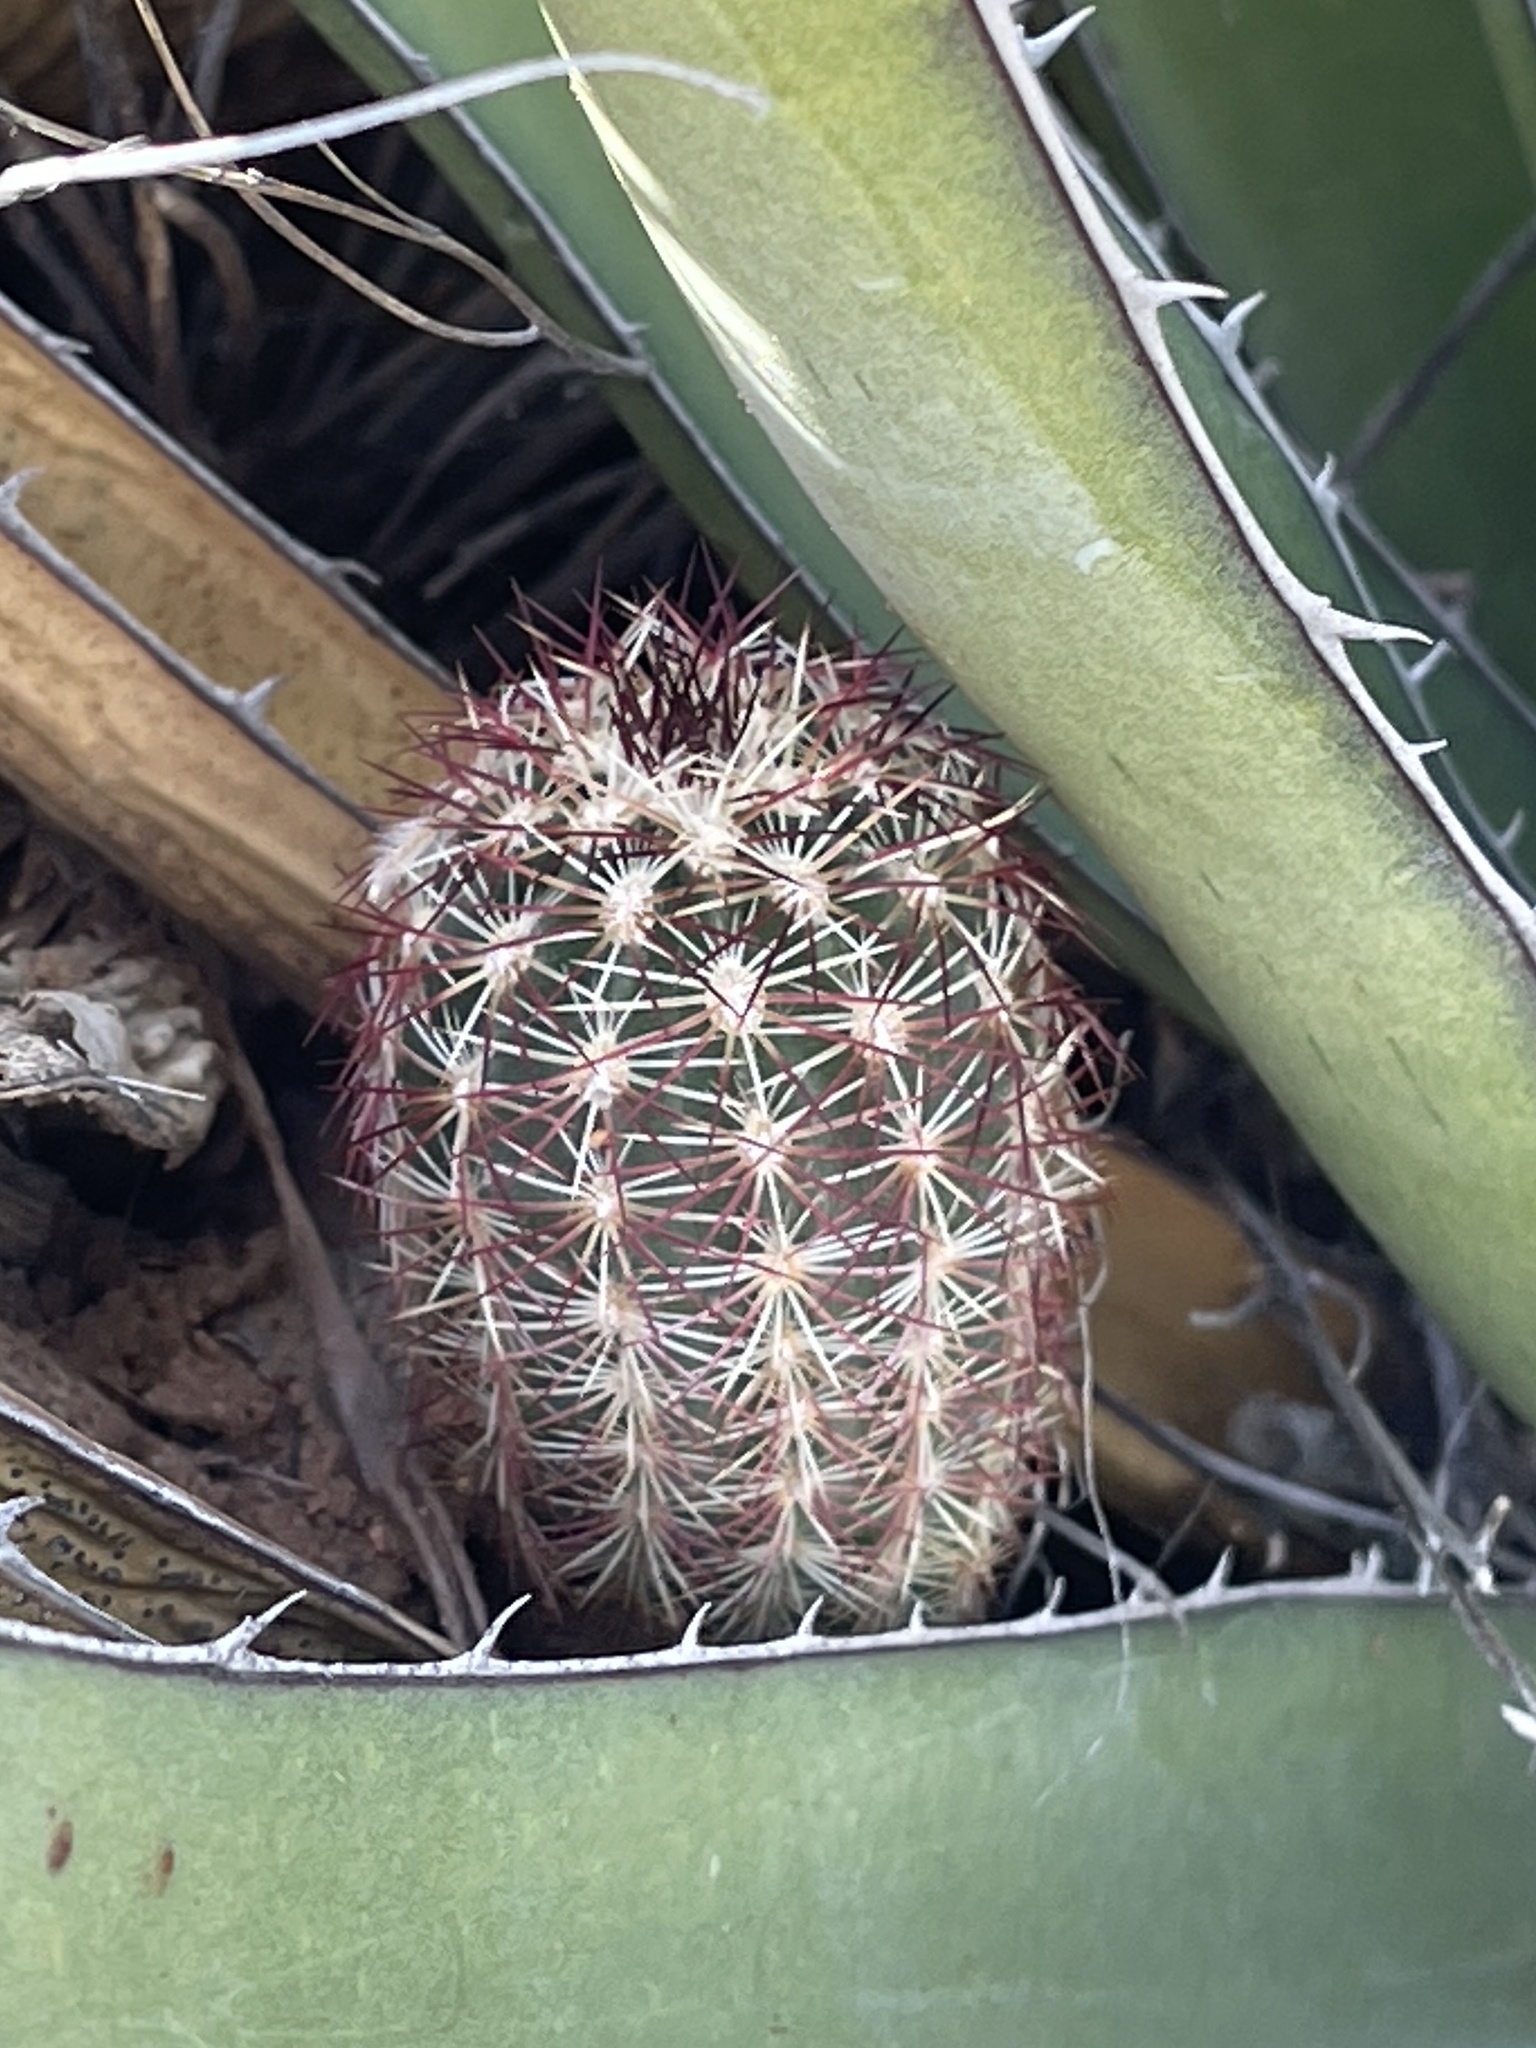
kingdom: Plantae
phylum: Tracheophyta
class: Magnoliopsida
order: Caryophyllales
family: Cactaceae
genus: Echinocereus
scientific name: Echinocereus viridiflorus
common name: Nylon hedgehog cactus
